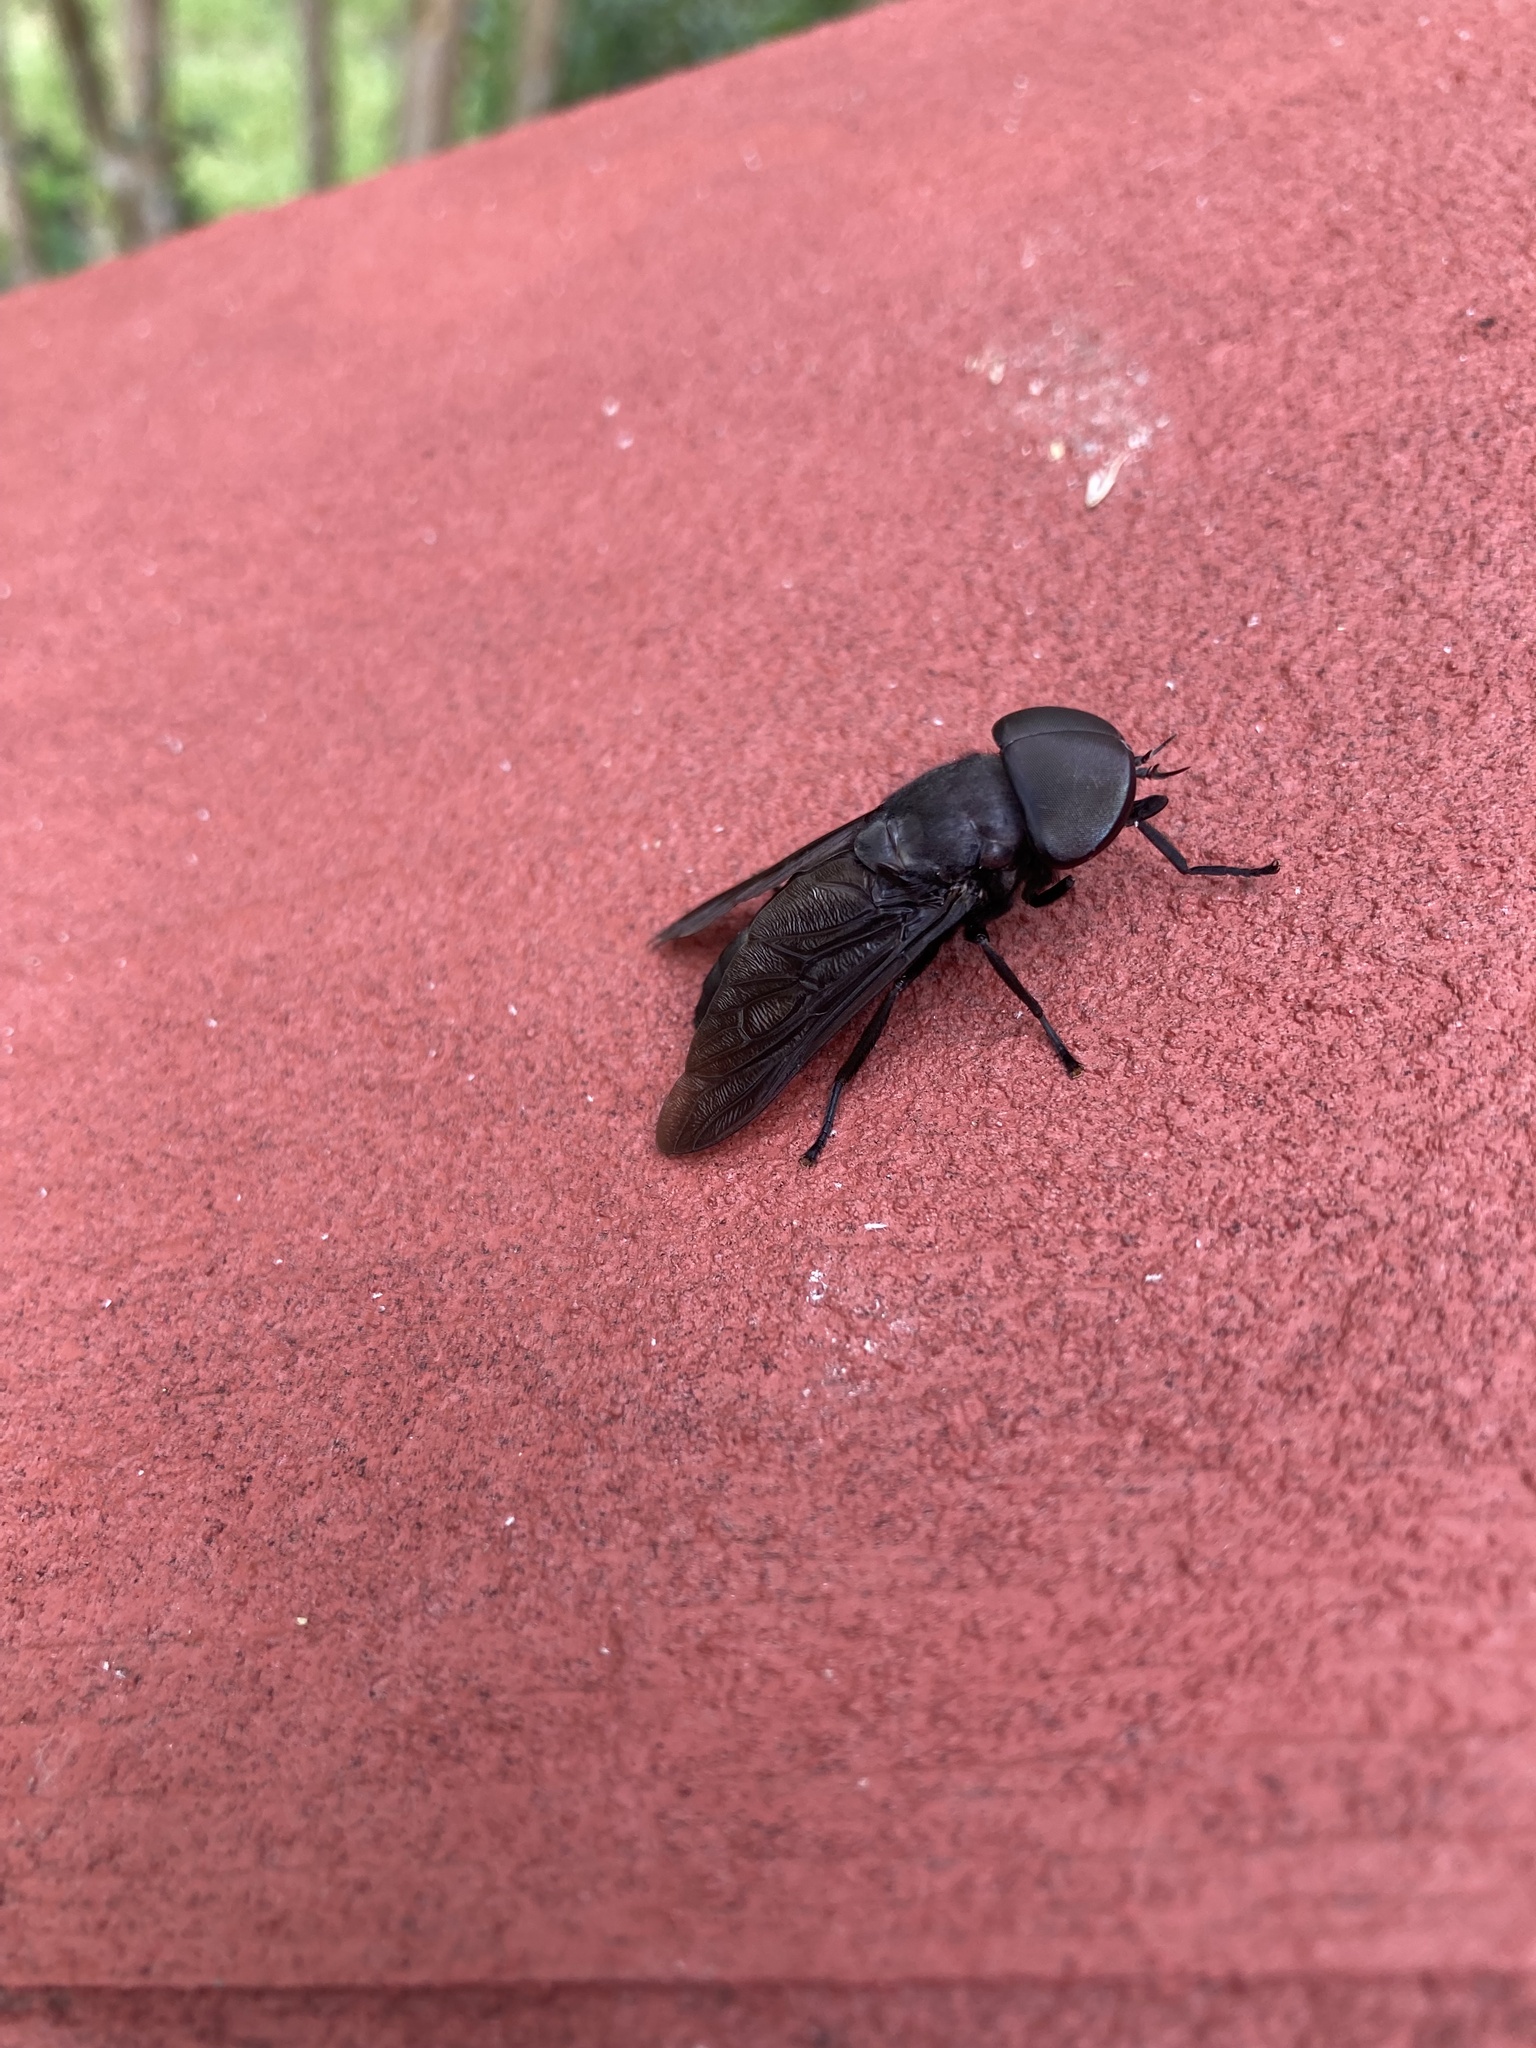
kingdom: Animalia
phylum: Arthropoda
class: Insecta
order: Diptera
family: Tabanidae
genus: Tabanus
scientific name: Tabanus atratus
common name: Black horse fly
